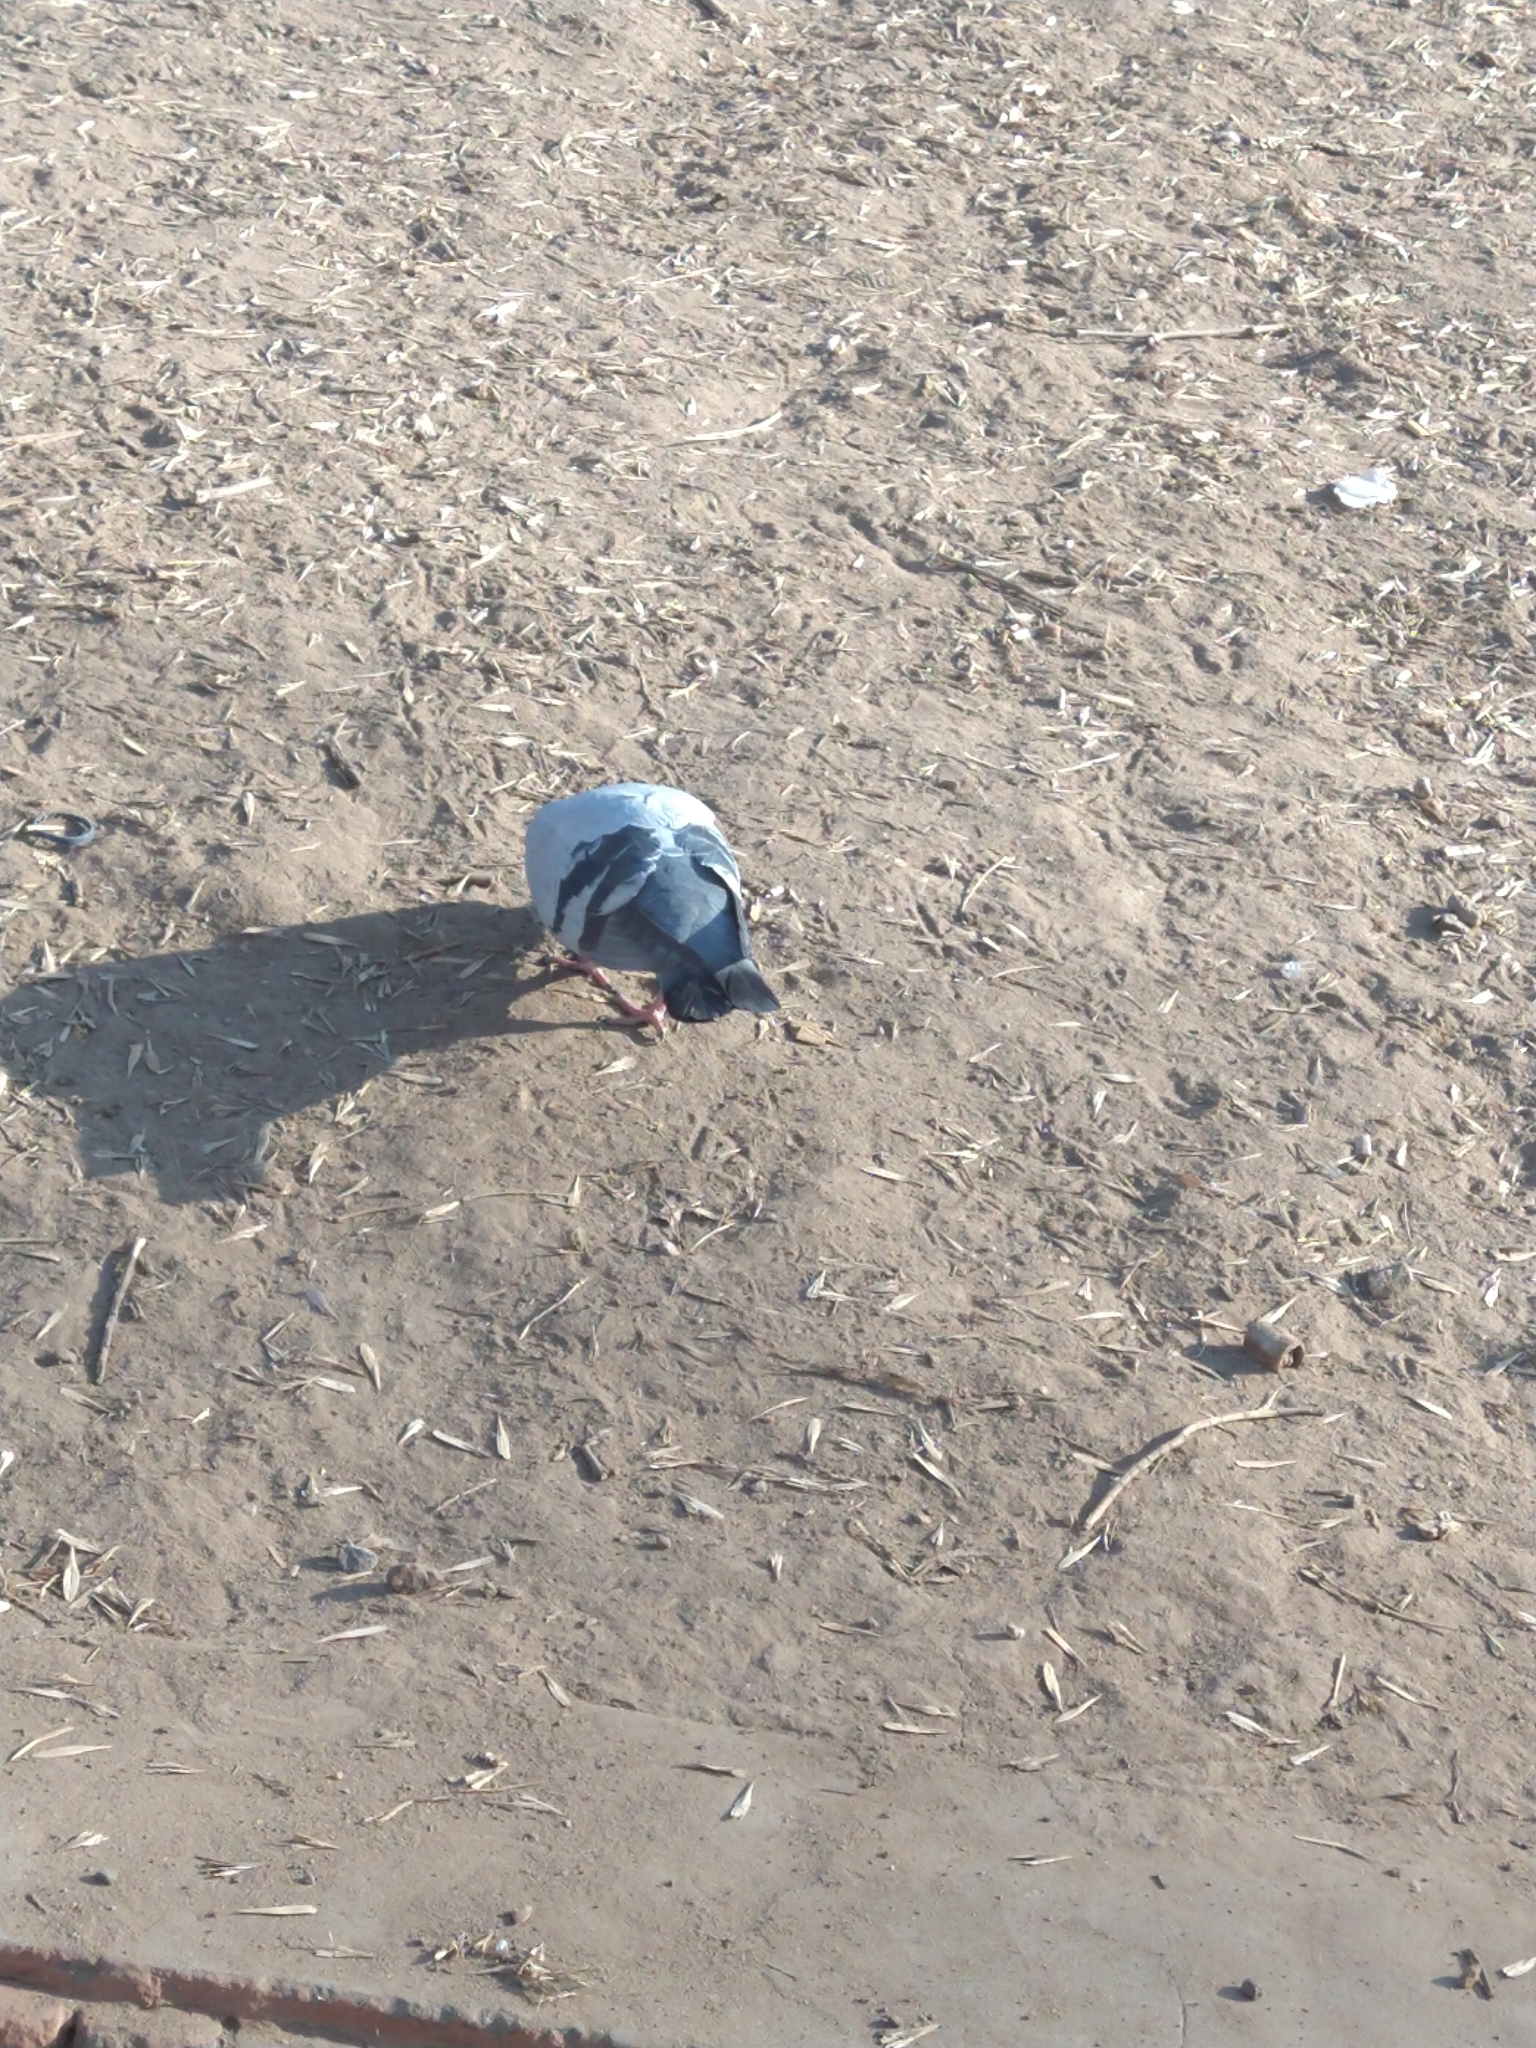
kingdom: Animalia
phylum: Chordata
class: Aves
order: Columbiformes
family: Columbidae
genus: Columba
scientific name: Columba livia
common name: Rock pigeon
